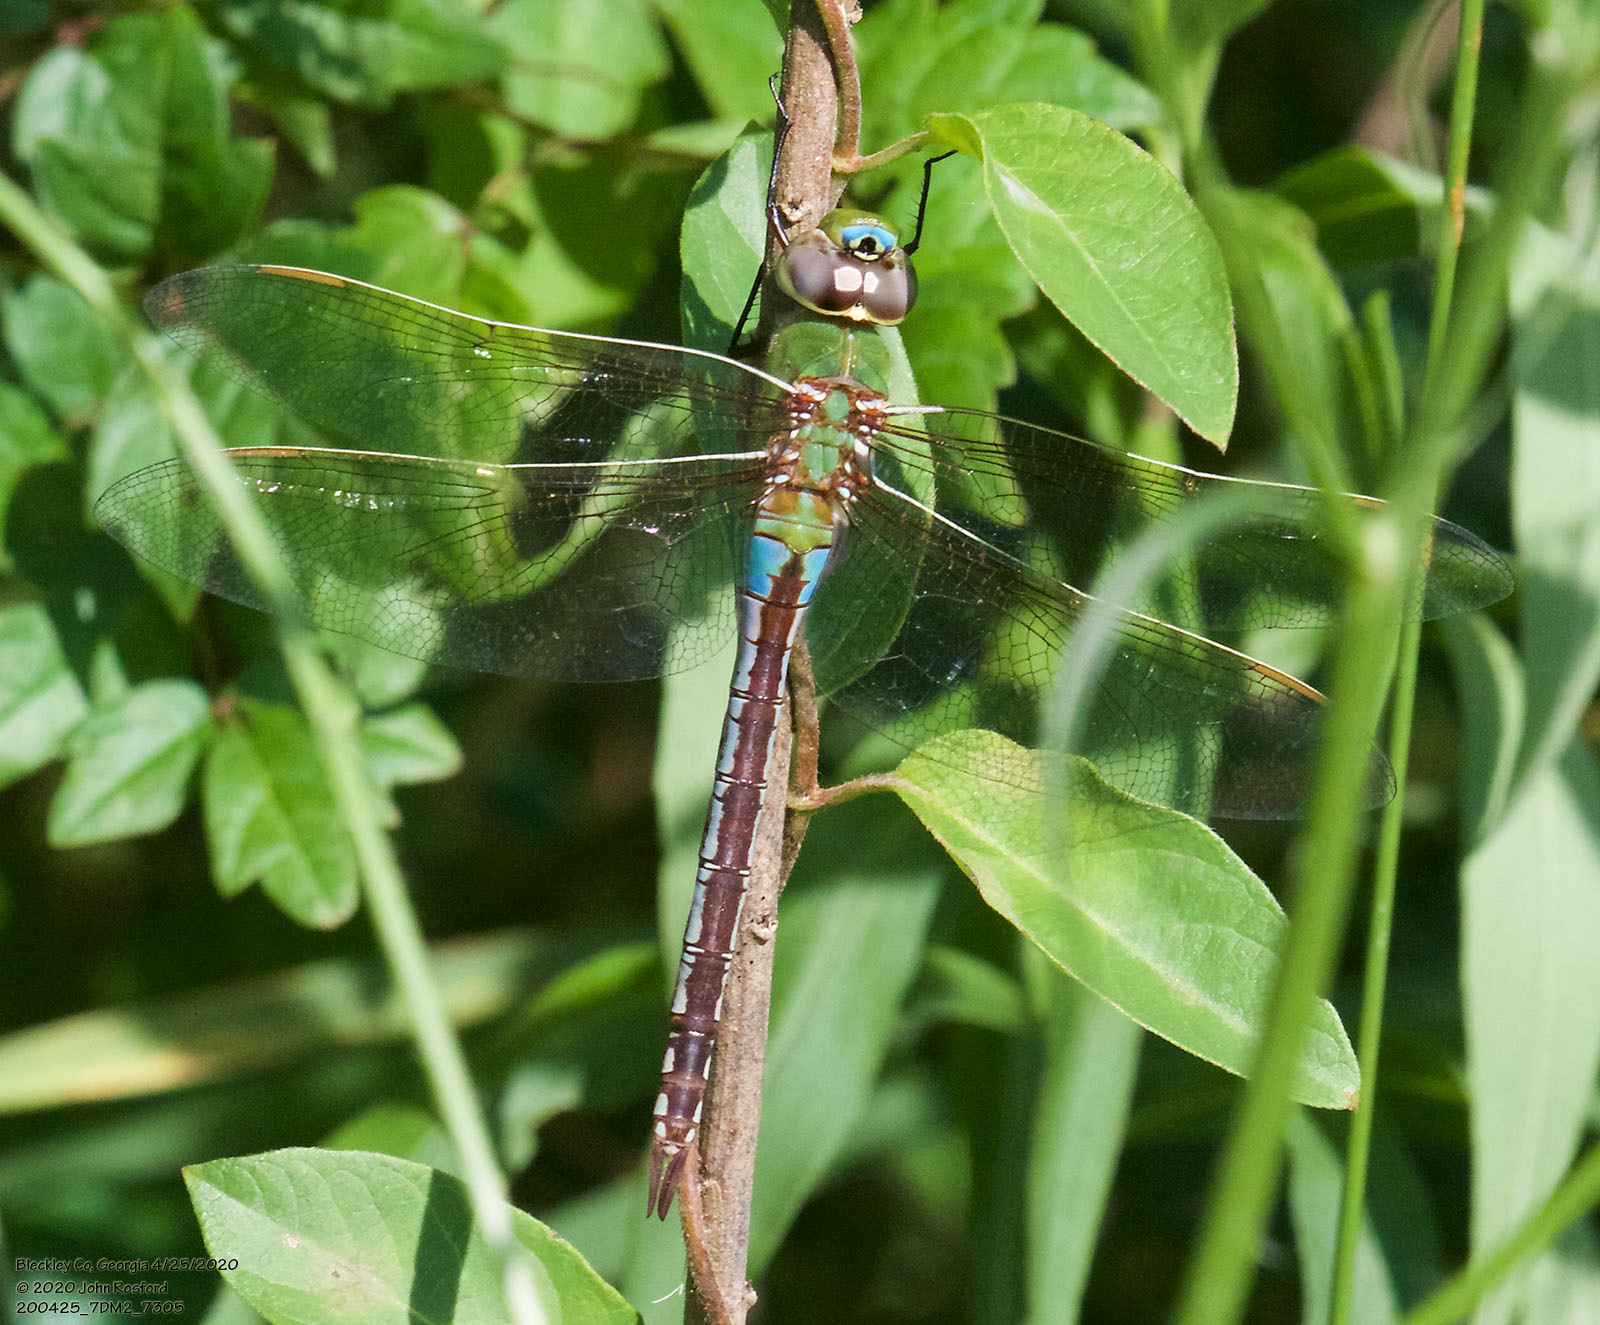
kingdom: Animalia
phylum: Arthropoda
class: Insecta
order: Odonata
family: Aeshnidae
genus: Anax
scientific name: Anax junius
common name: Common green darner
